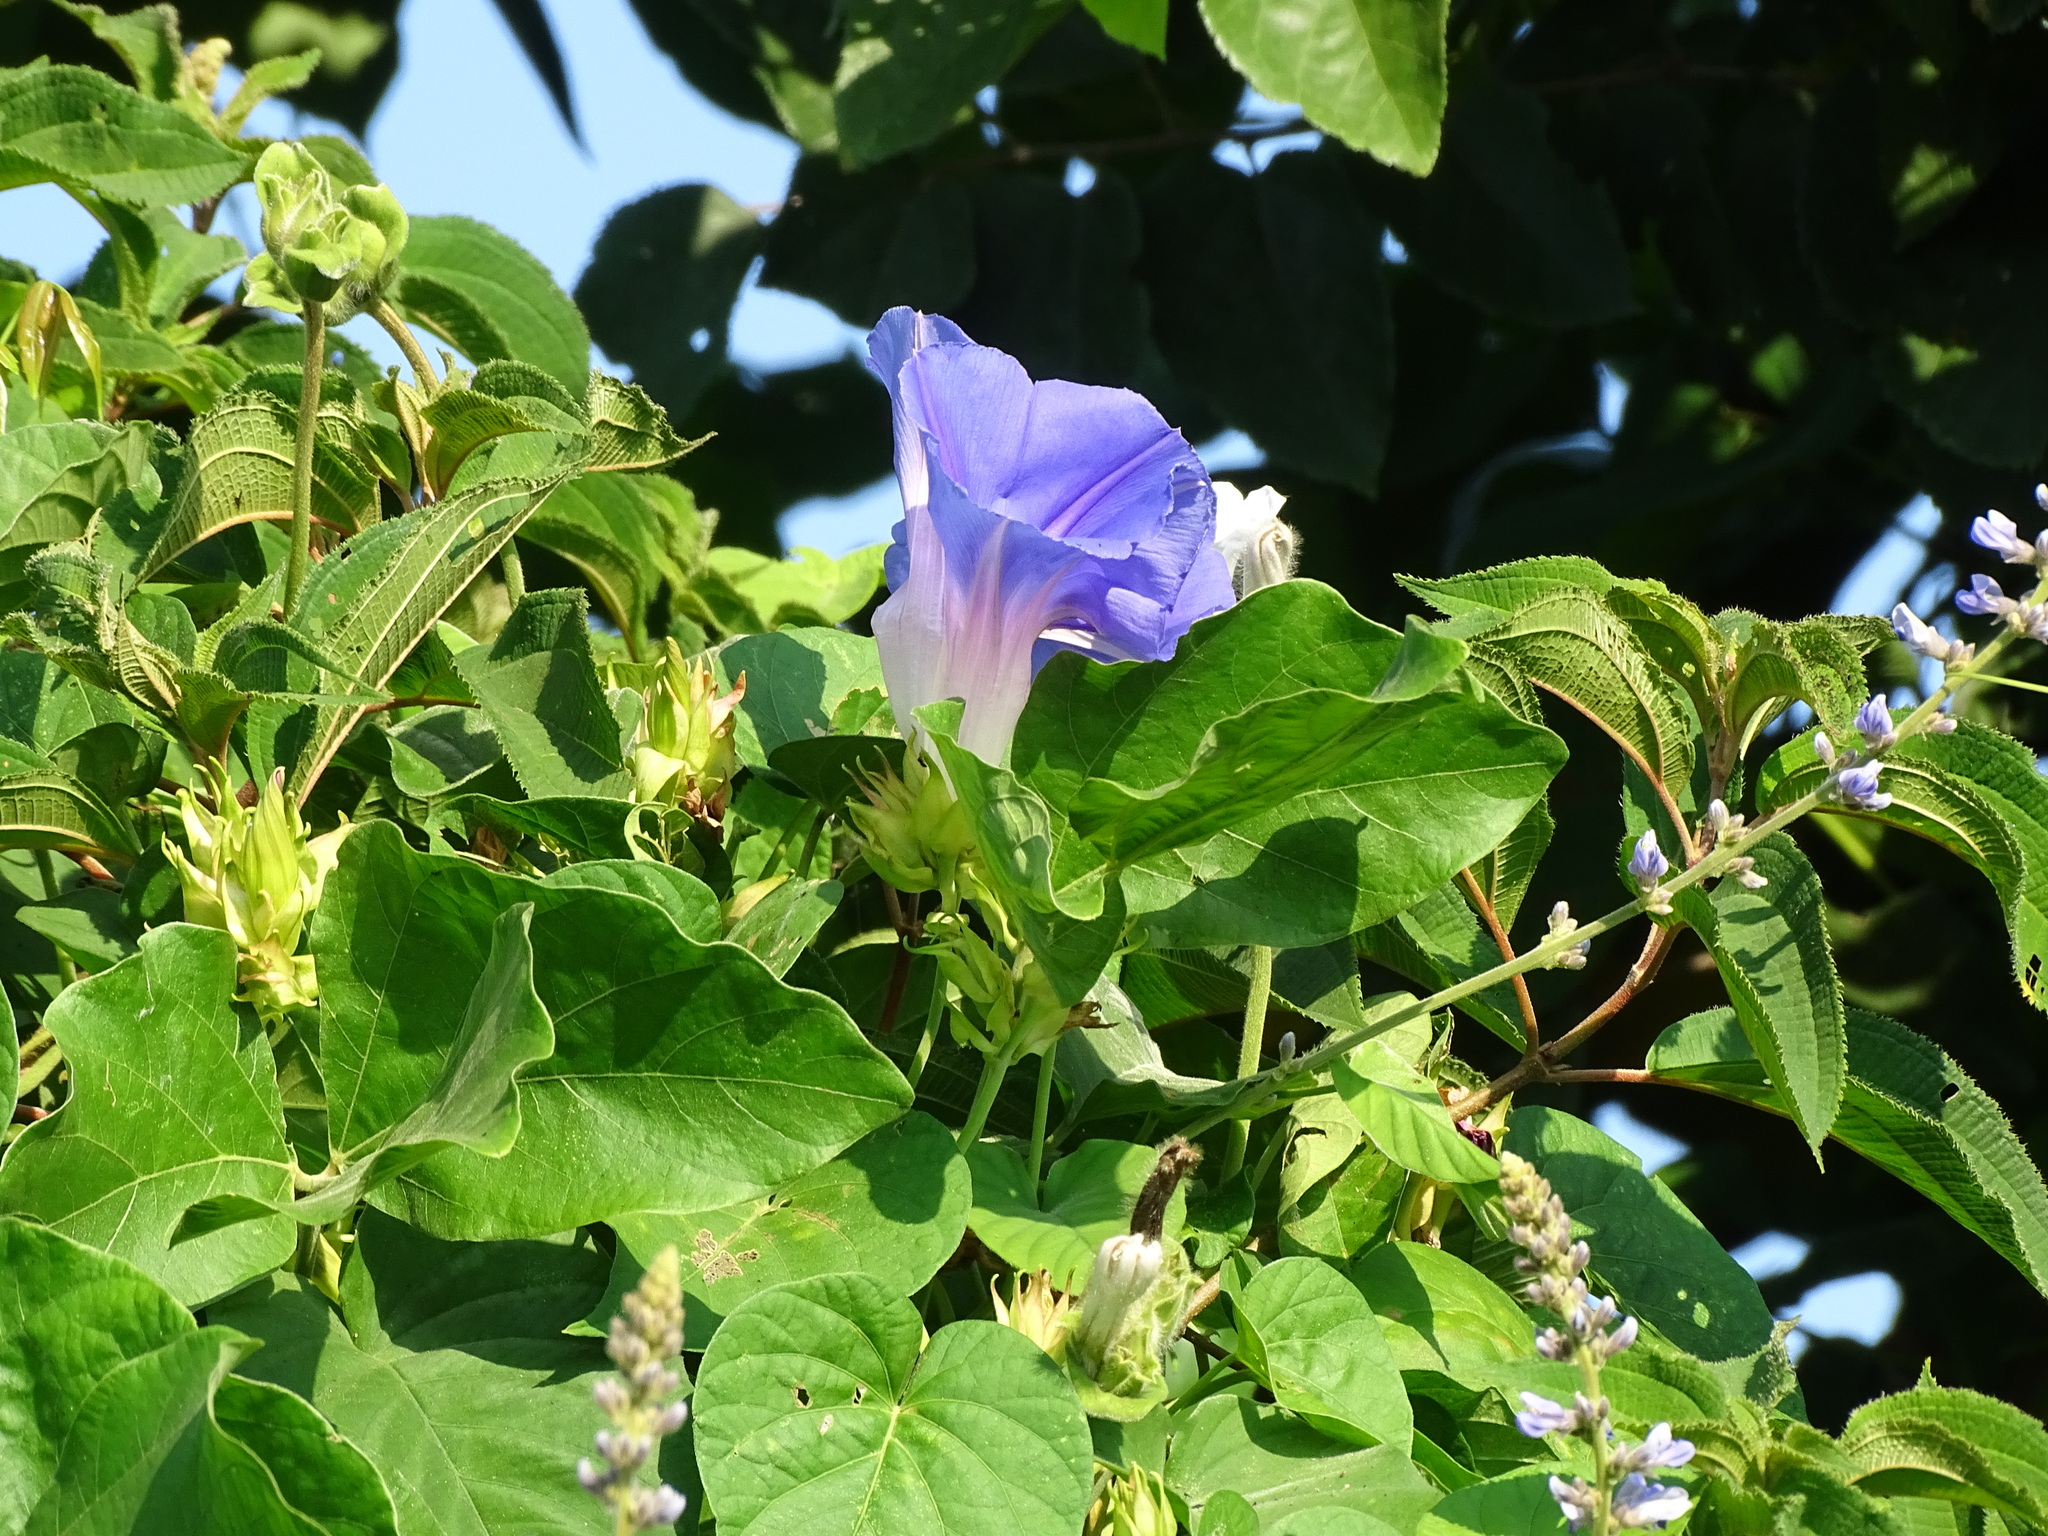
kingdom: Plantae
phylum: Tracheophyta
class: Magnoliopsida
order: Solanales
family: Convolvulaceae
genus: Ipomoea
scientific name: Ipomoea indica
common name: Blue dawnflower
